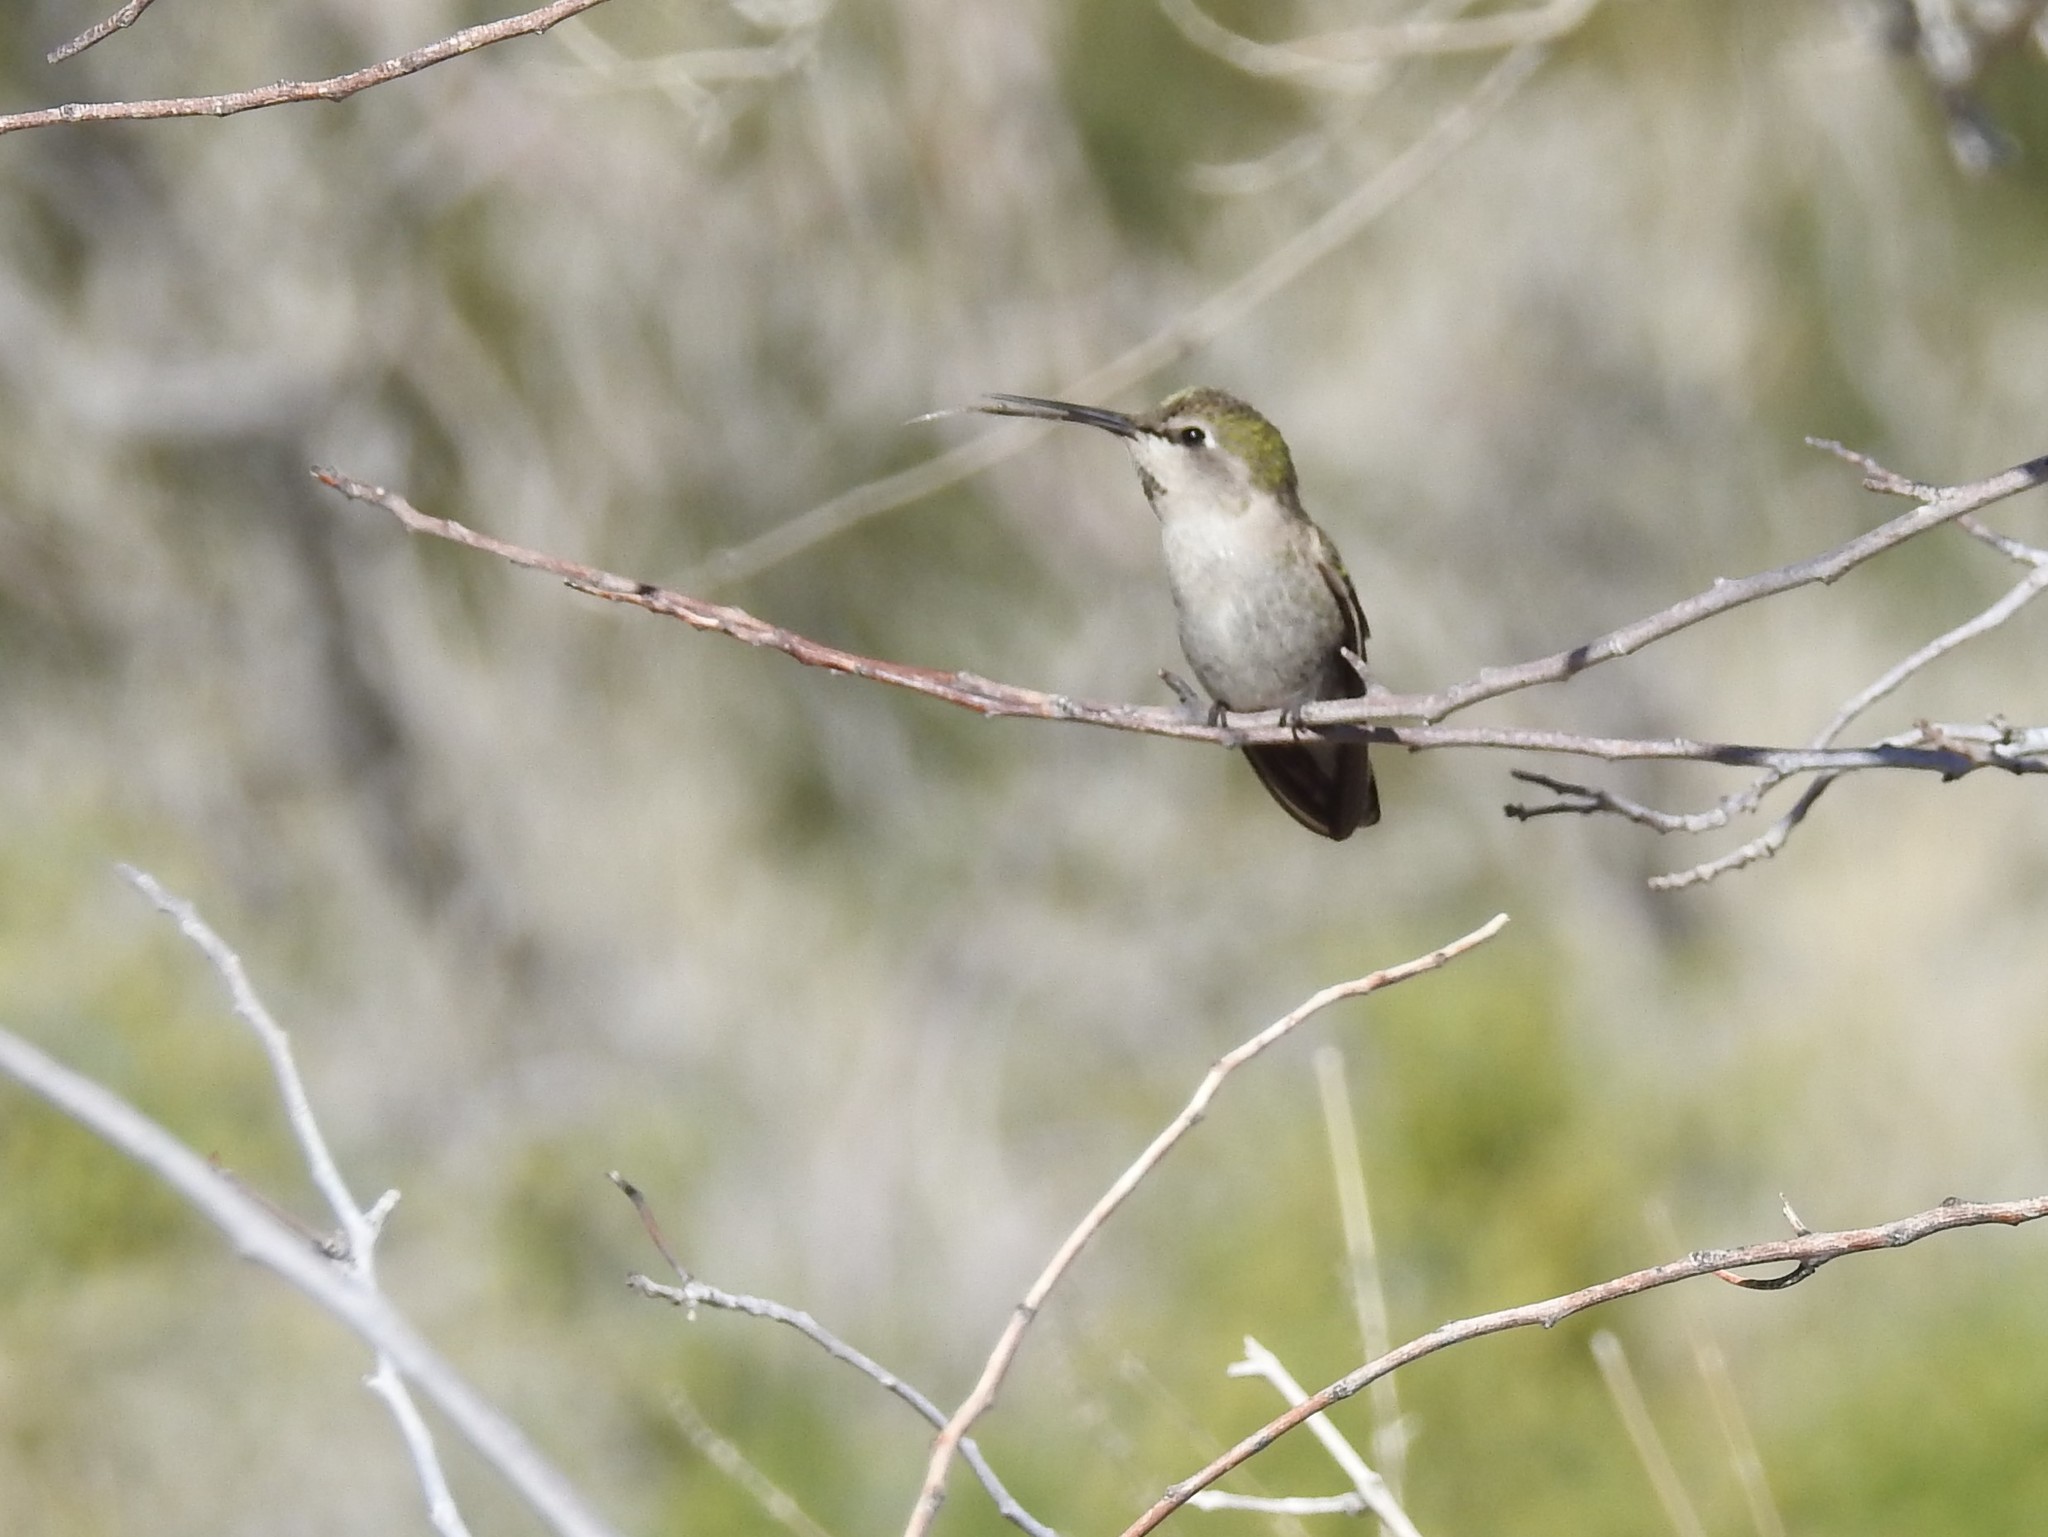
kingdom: Animalia
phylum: Chordata
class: Aves
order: Apodiformes
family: Trochilidae
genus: Calypte
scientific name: Calypte costae
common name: Costa's hummingbird
